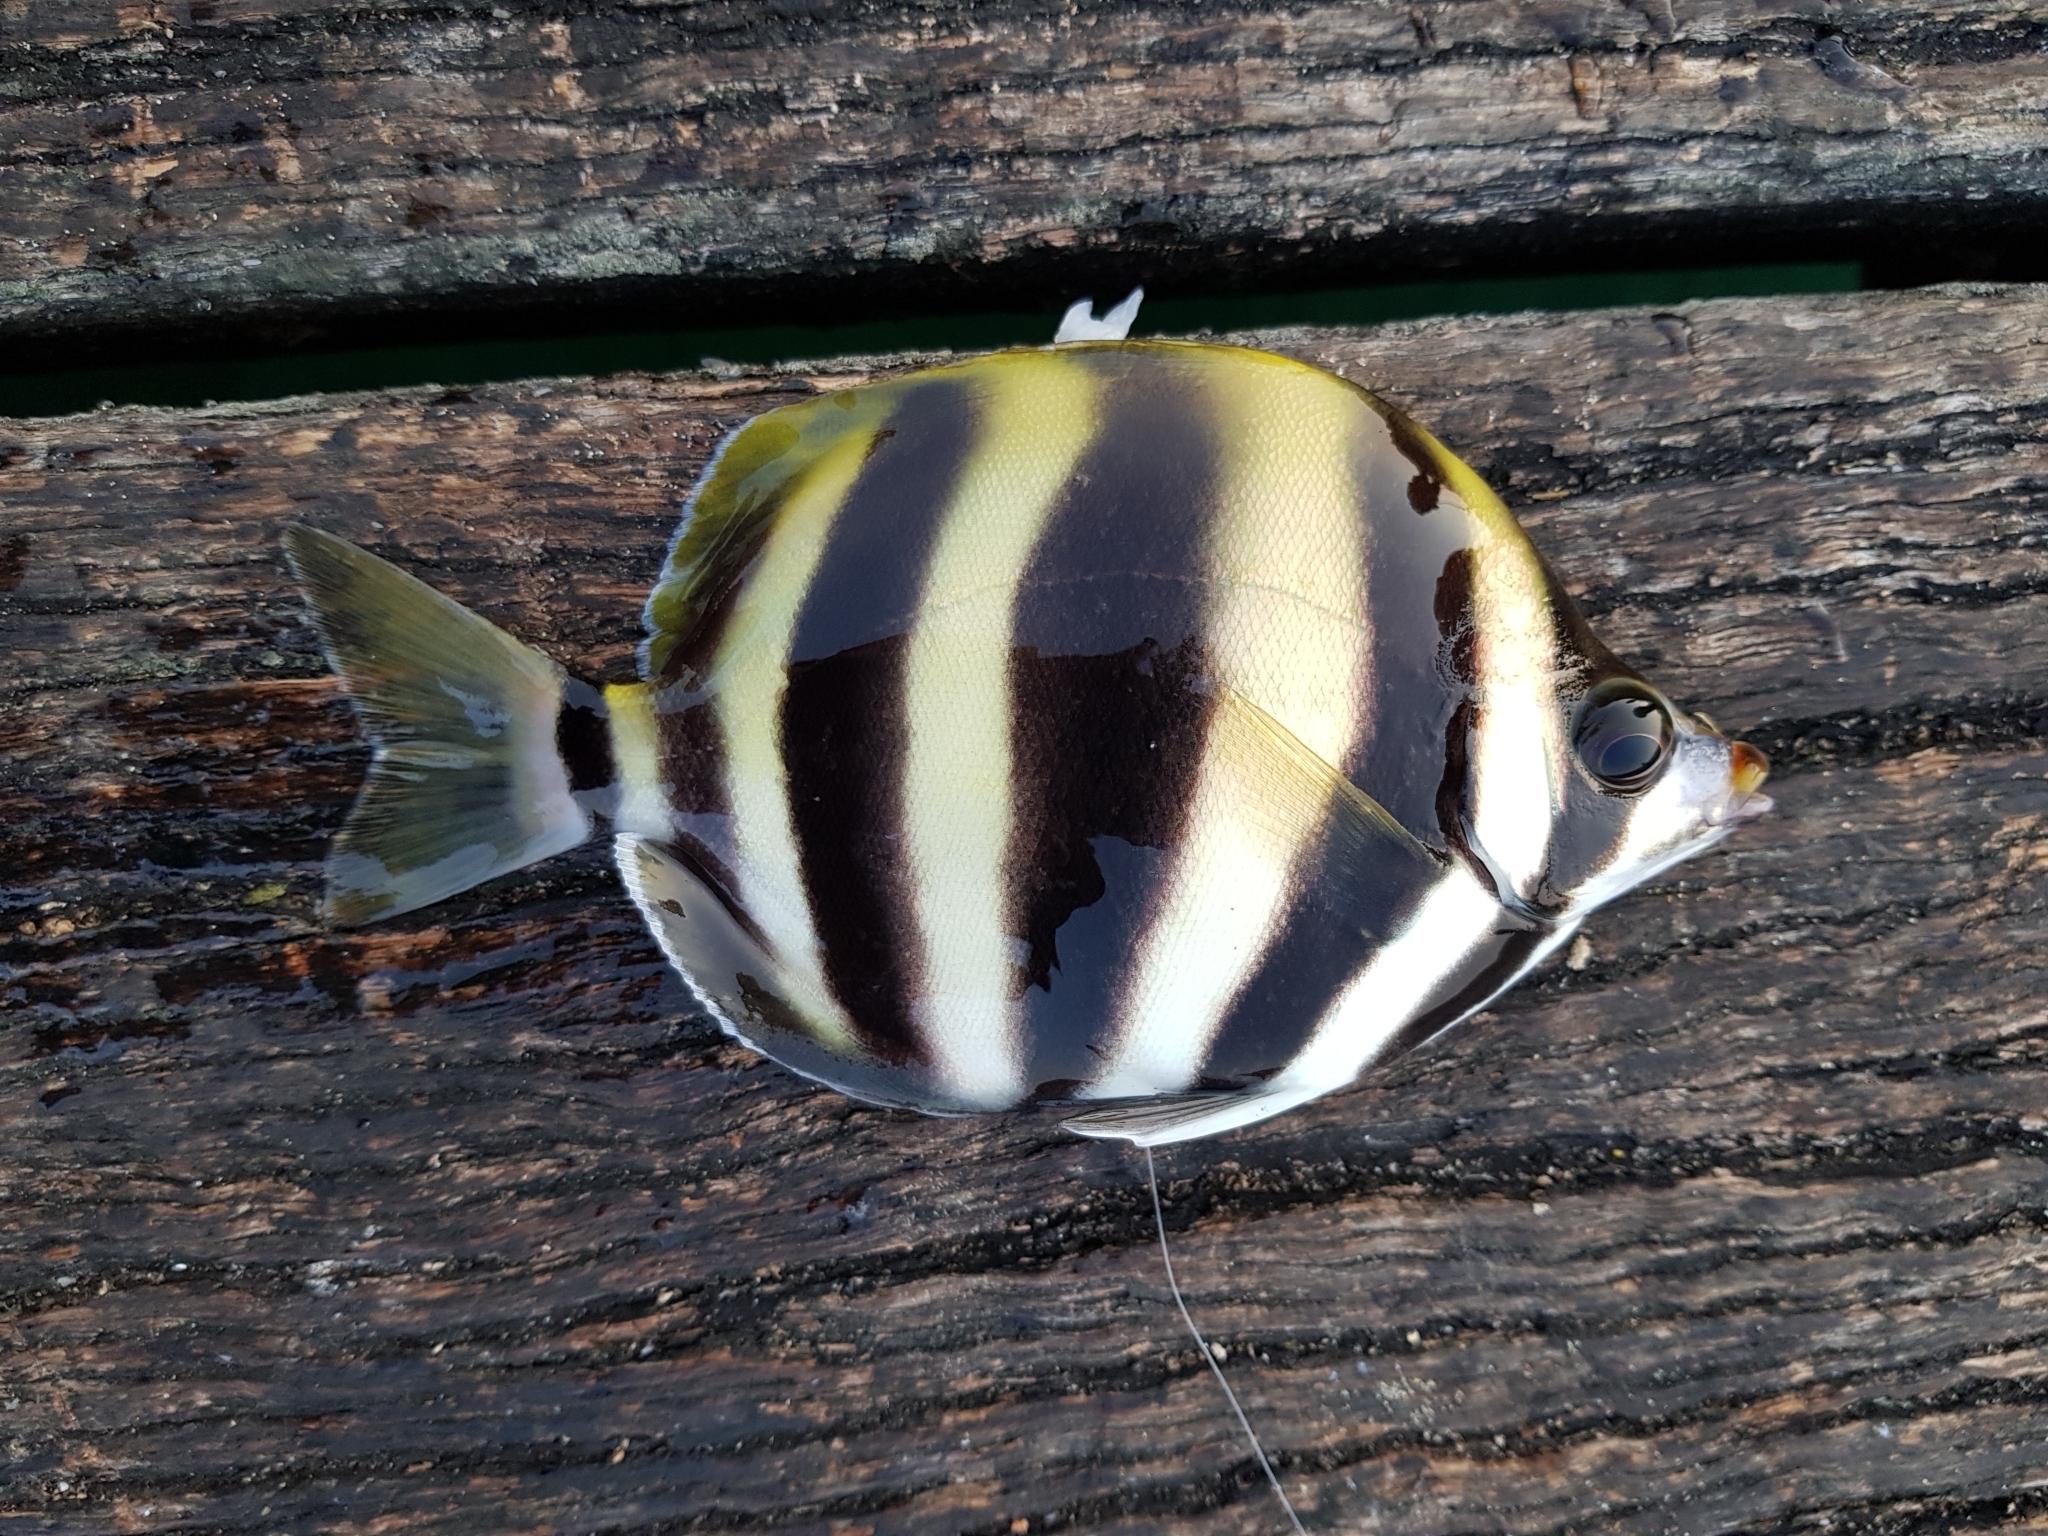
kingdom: Animalia
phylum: Chordata
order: Perciformes
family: Kyphosidae
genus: Tilodon
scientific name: Tilodon sexfasciatus
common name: Moonlighter
